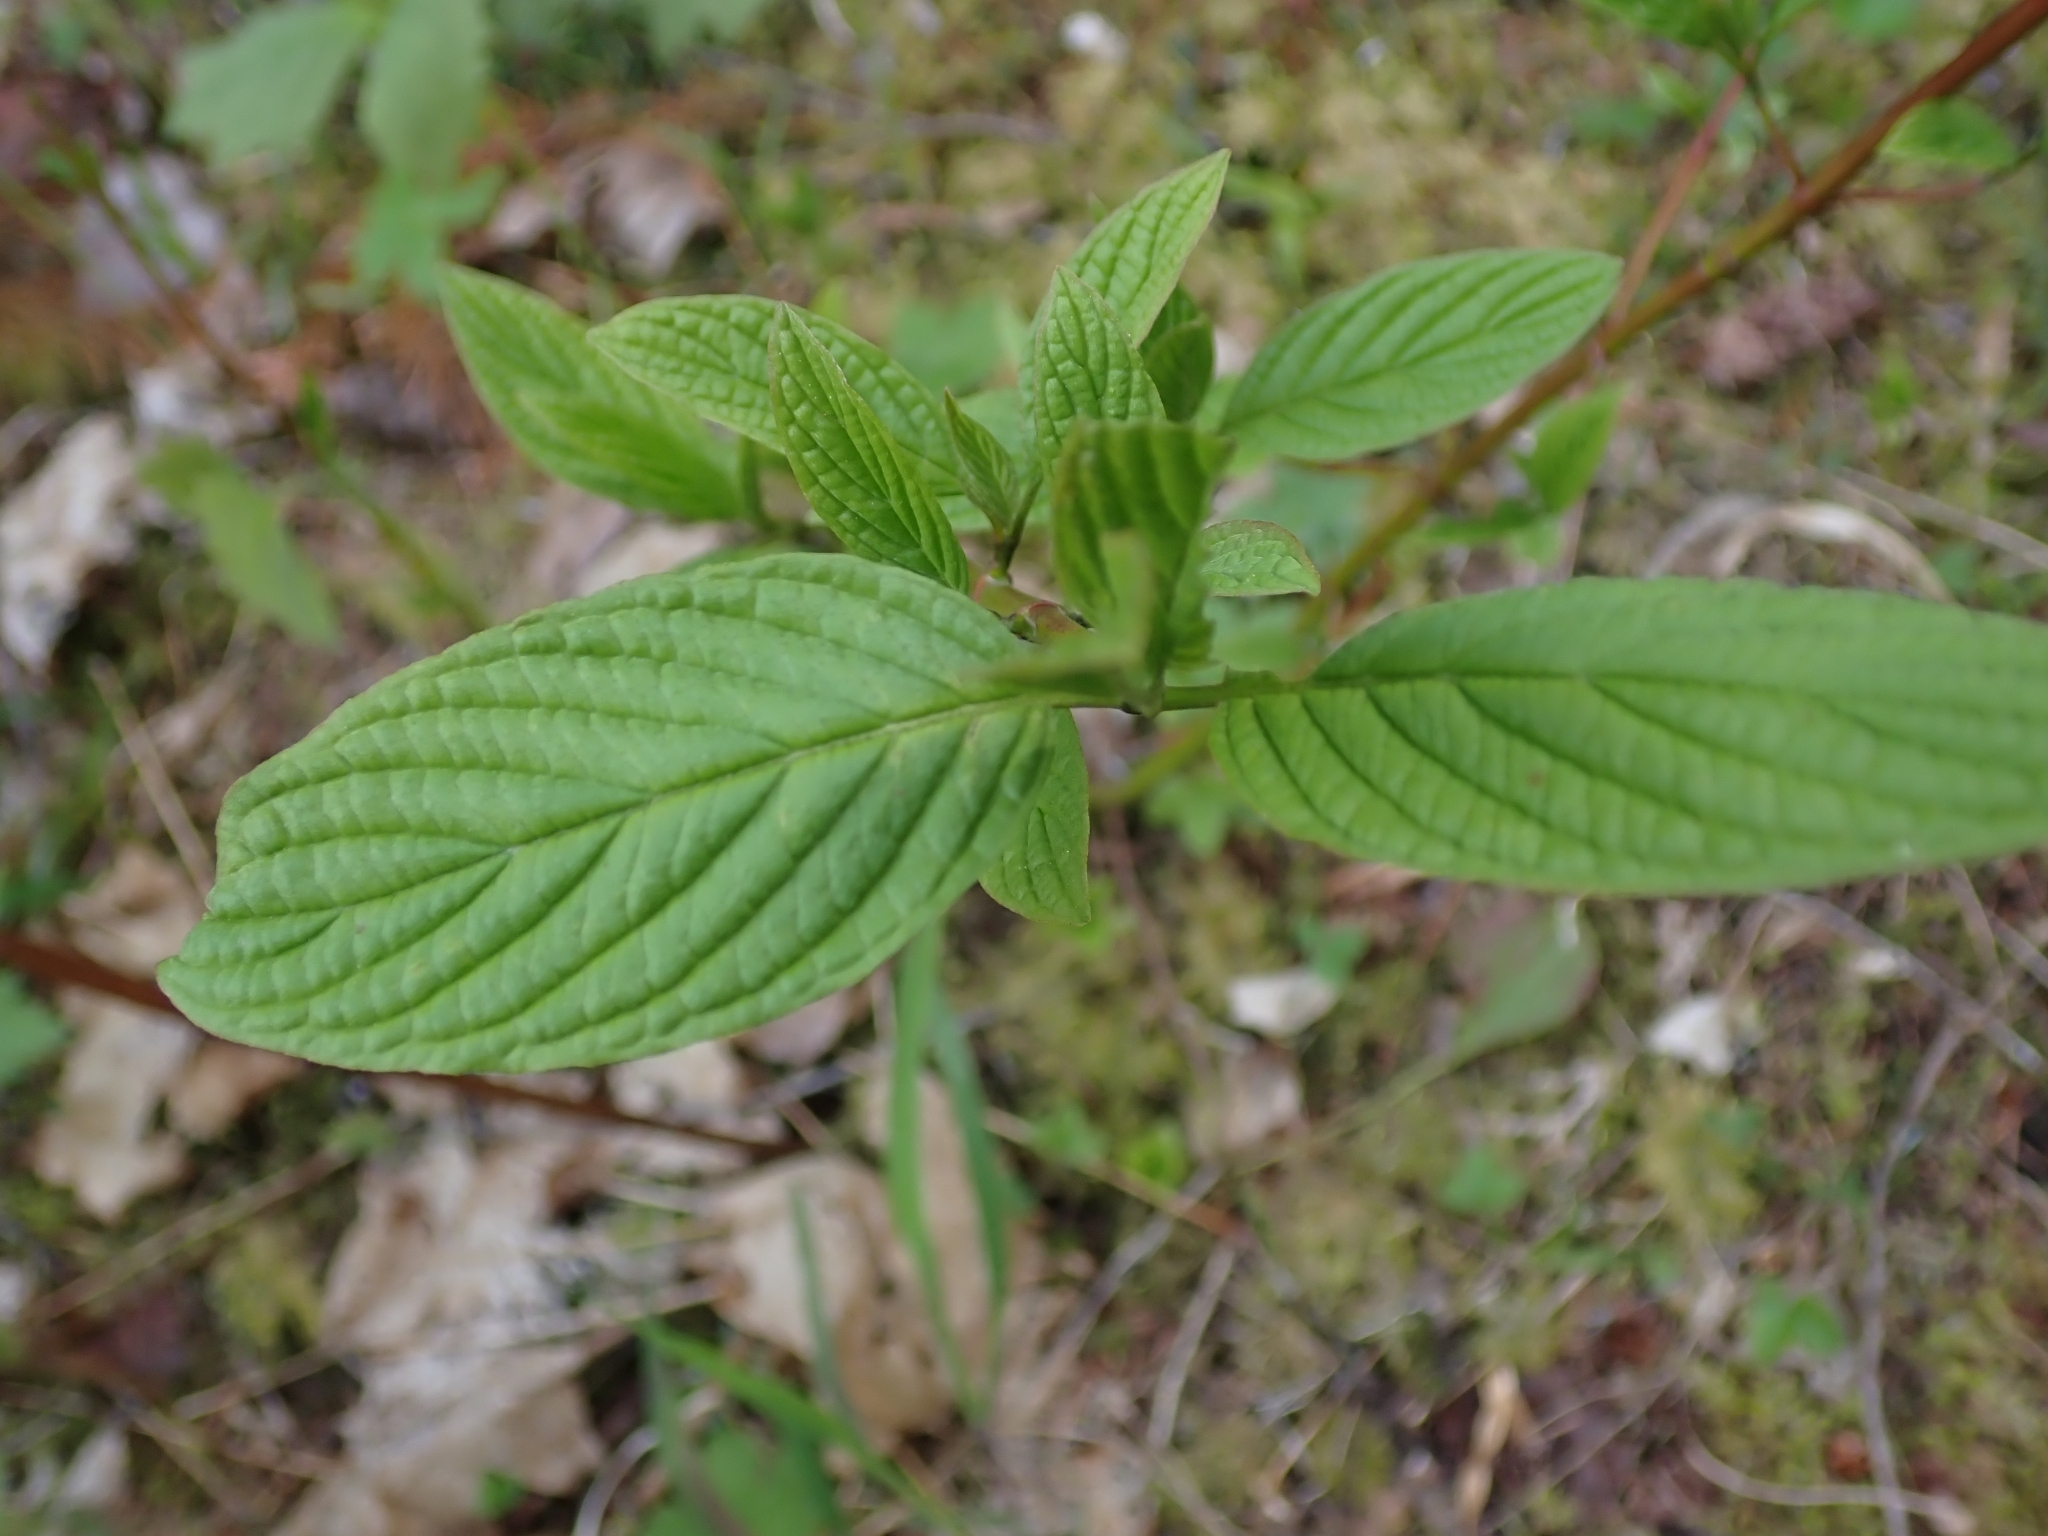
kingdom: Plantae
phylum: Tracheophyta
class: Magnoliopsida
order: Cornales
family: Cornaceae
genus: Cornus
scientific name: Cornus sericea
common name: Red-osier dogwood
